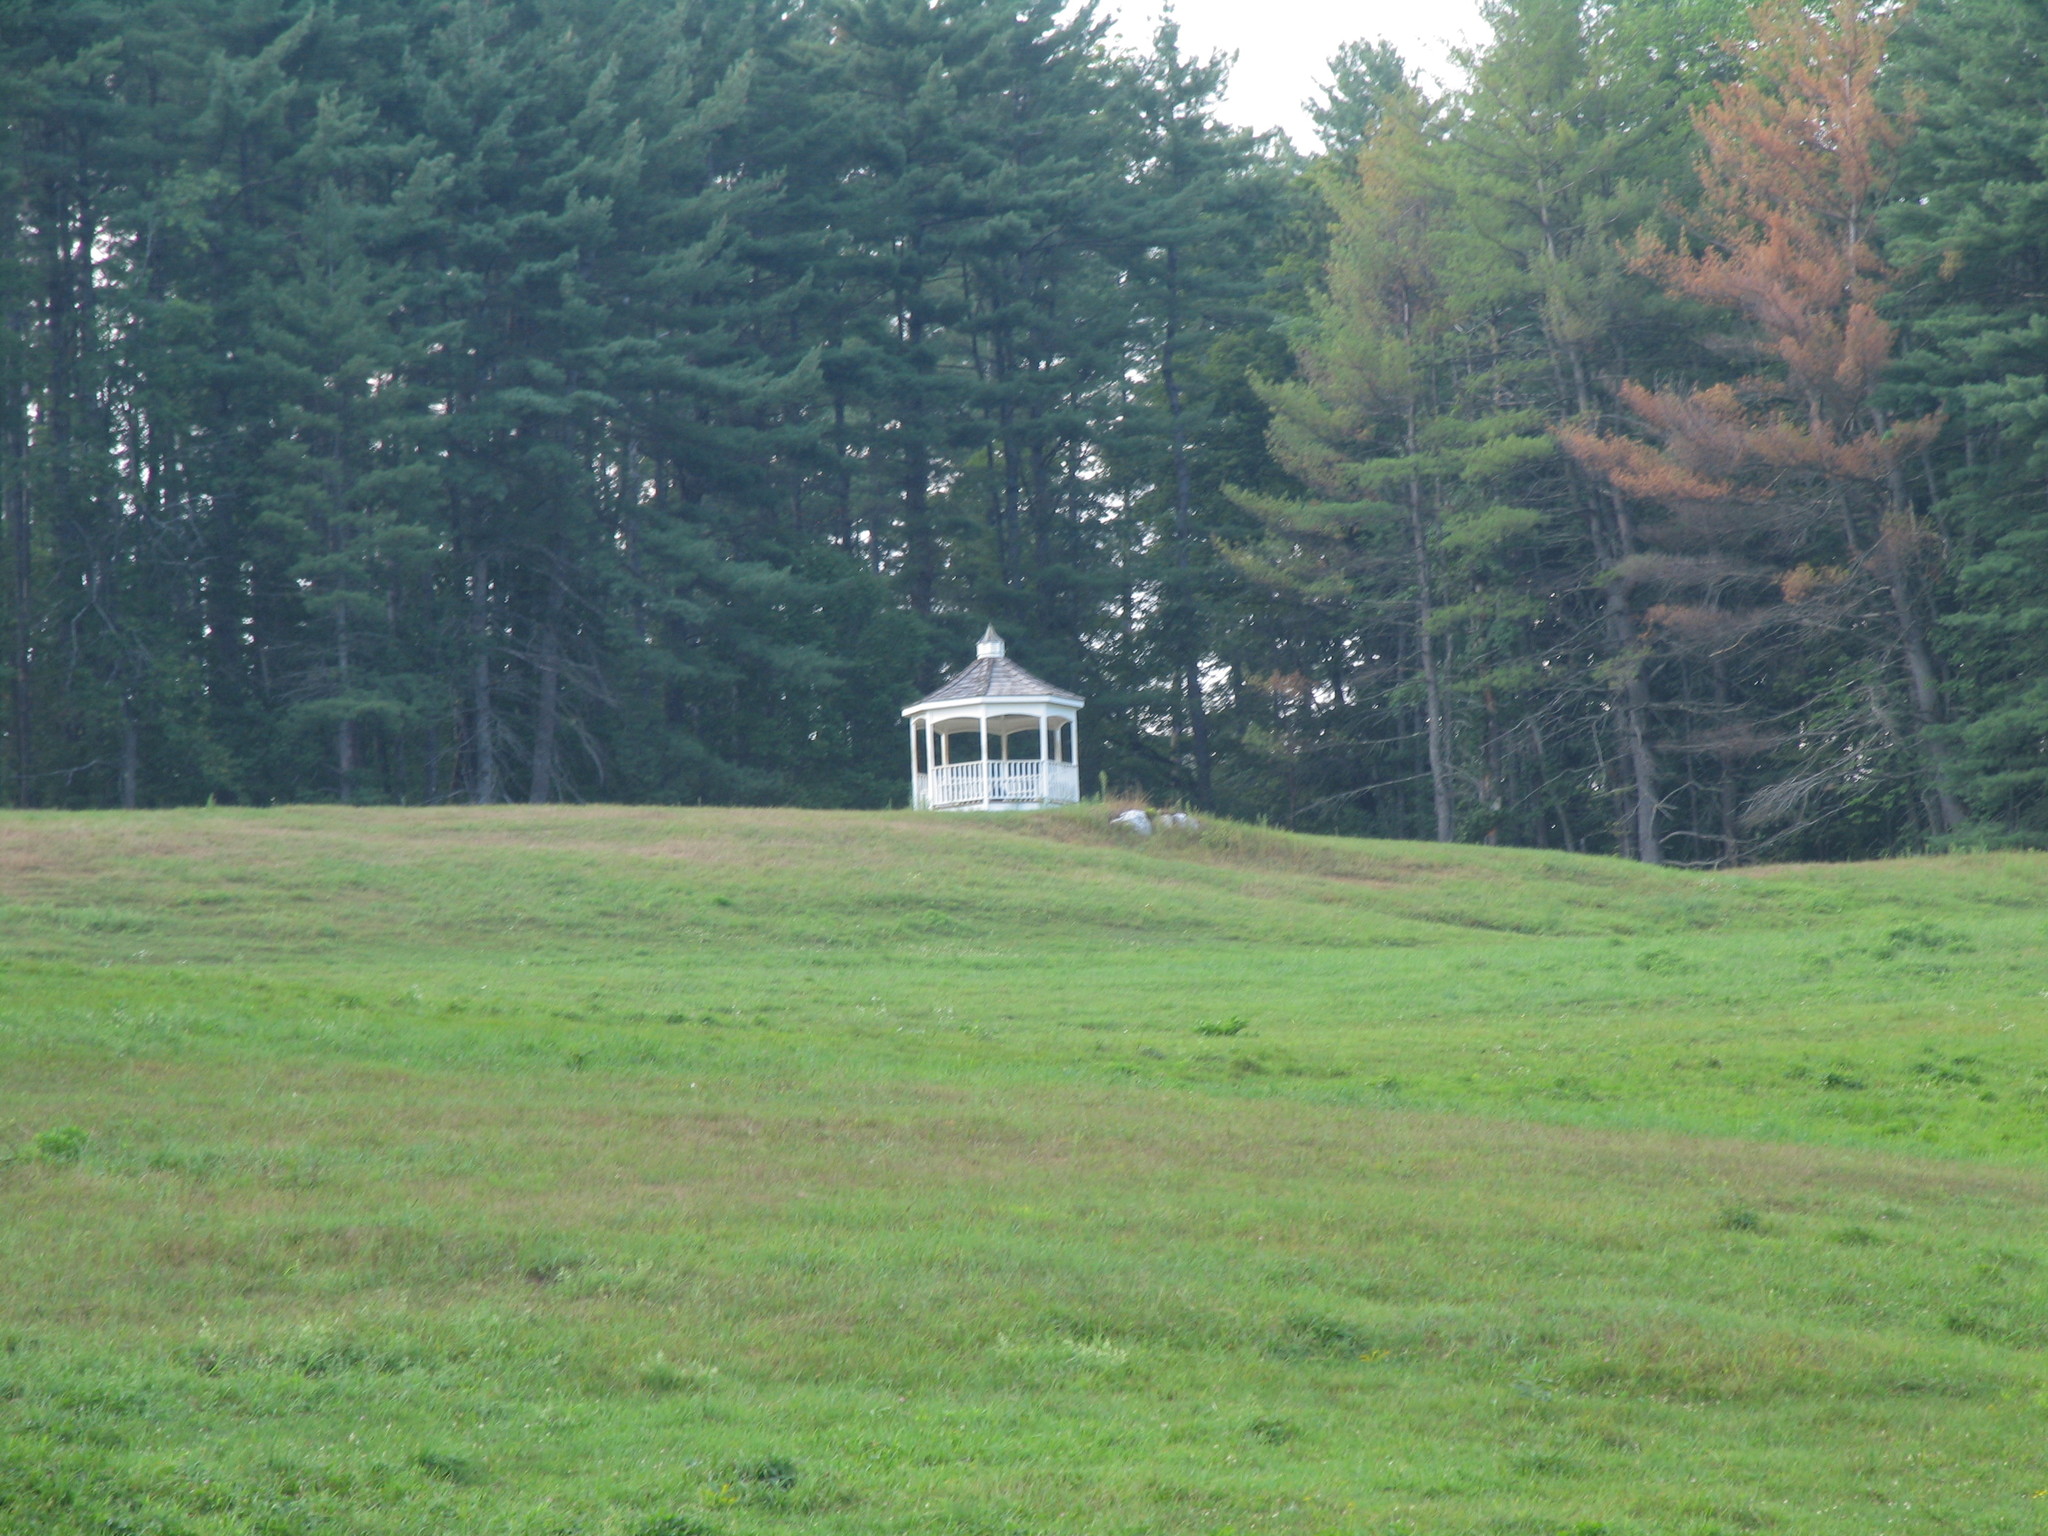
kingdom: Plantae
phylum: Tracheophyta
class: Pinopsida
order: Pinales
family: Pinaceae
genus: Pinus
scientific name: Pinus strobus
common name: Weymouth pine
